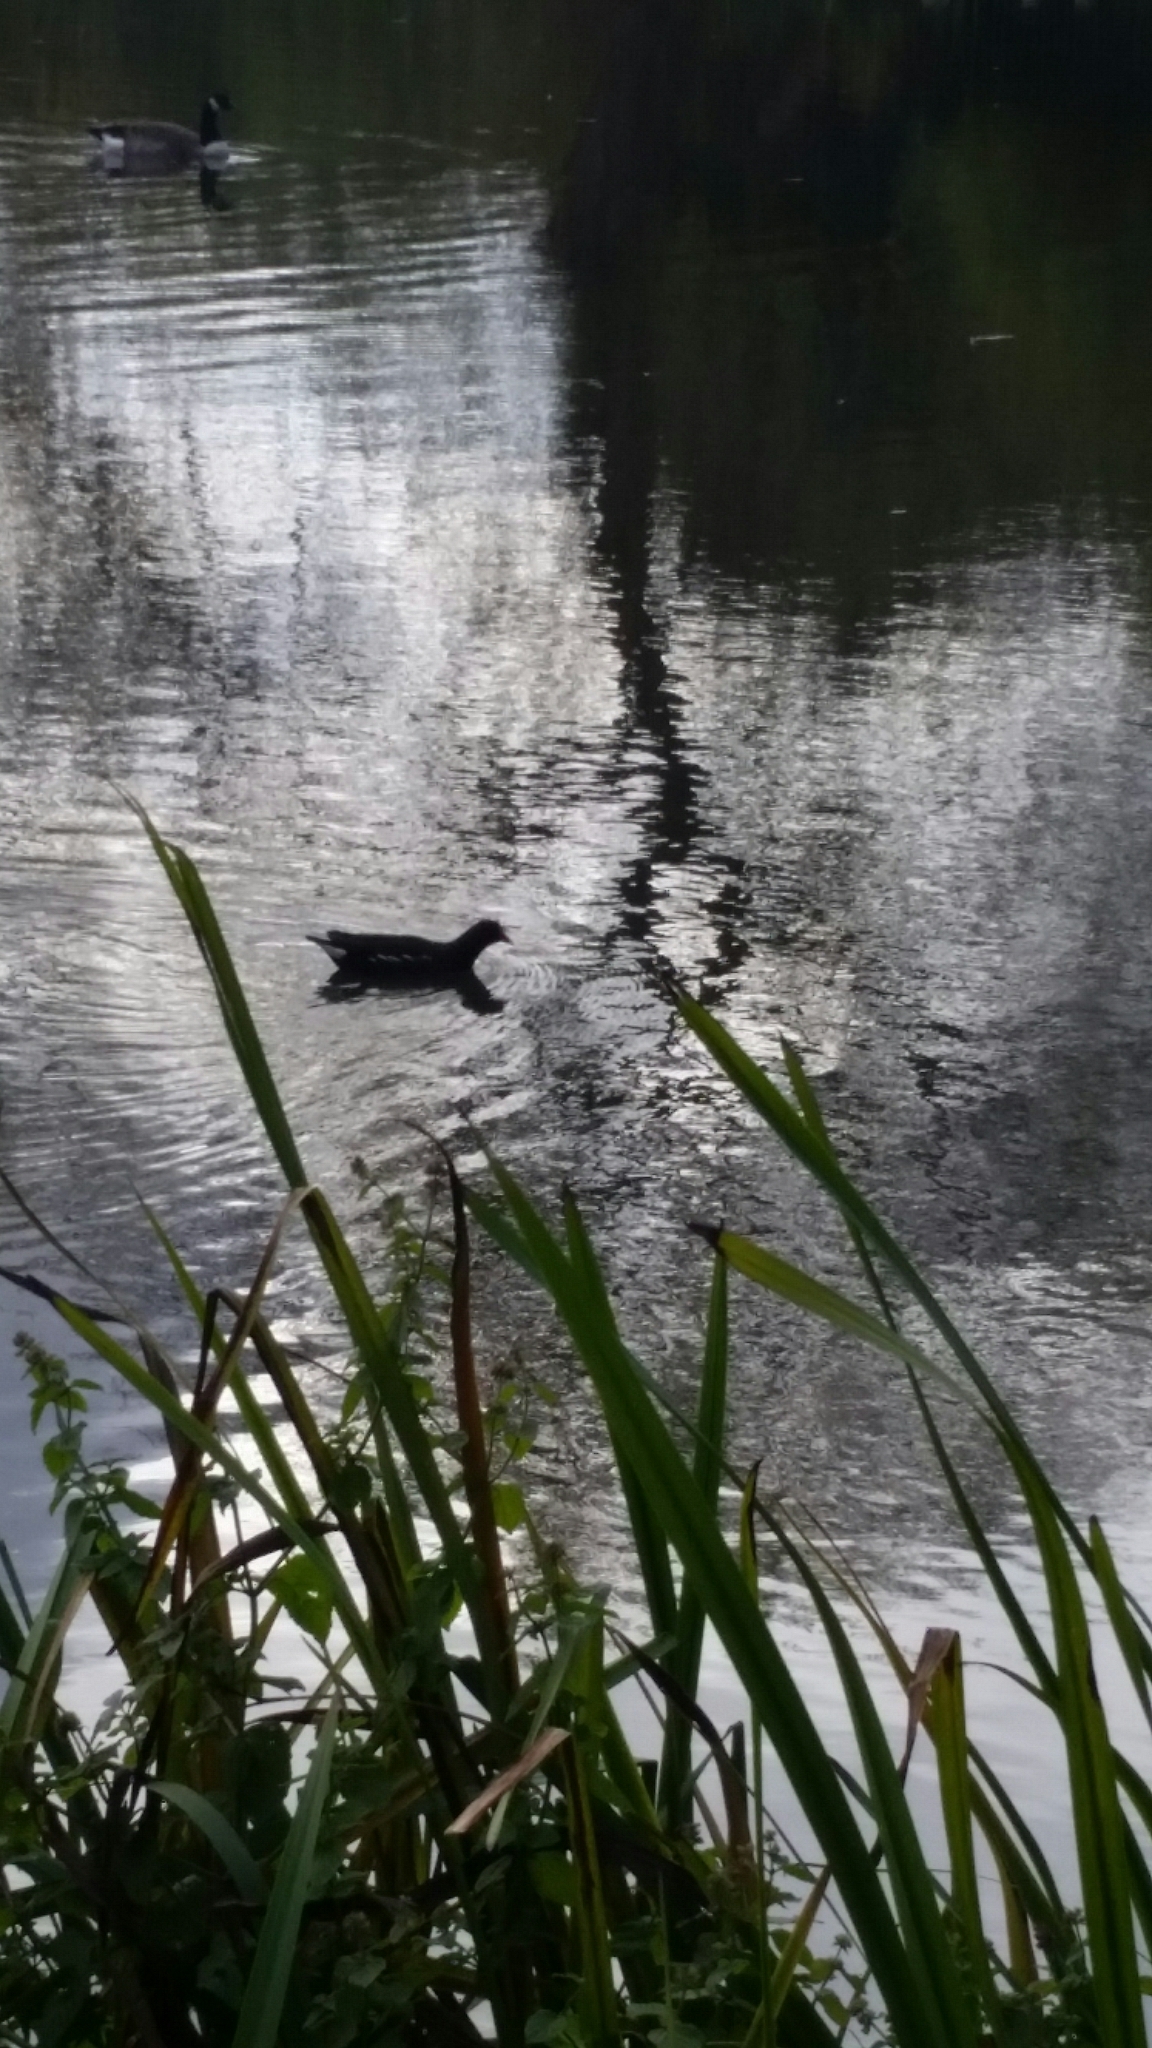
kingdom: Animalia
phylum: Chordata
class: Aves
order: Gruiformes
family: Rallidae
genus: Gallinula
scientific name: Gallinula chloropus
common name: Common moorhen
